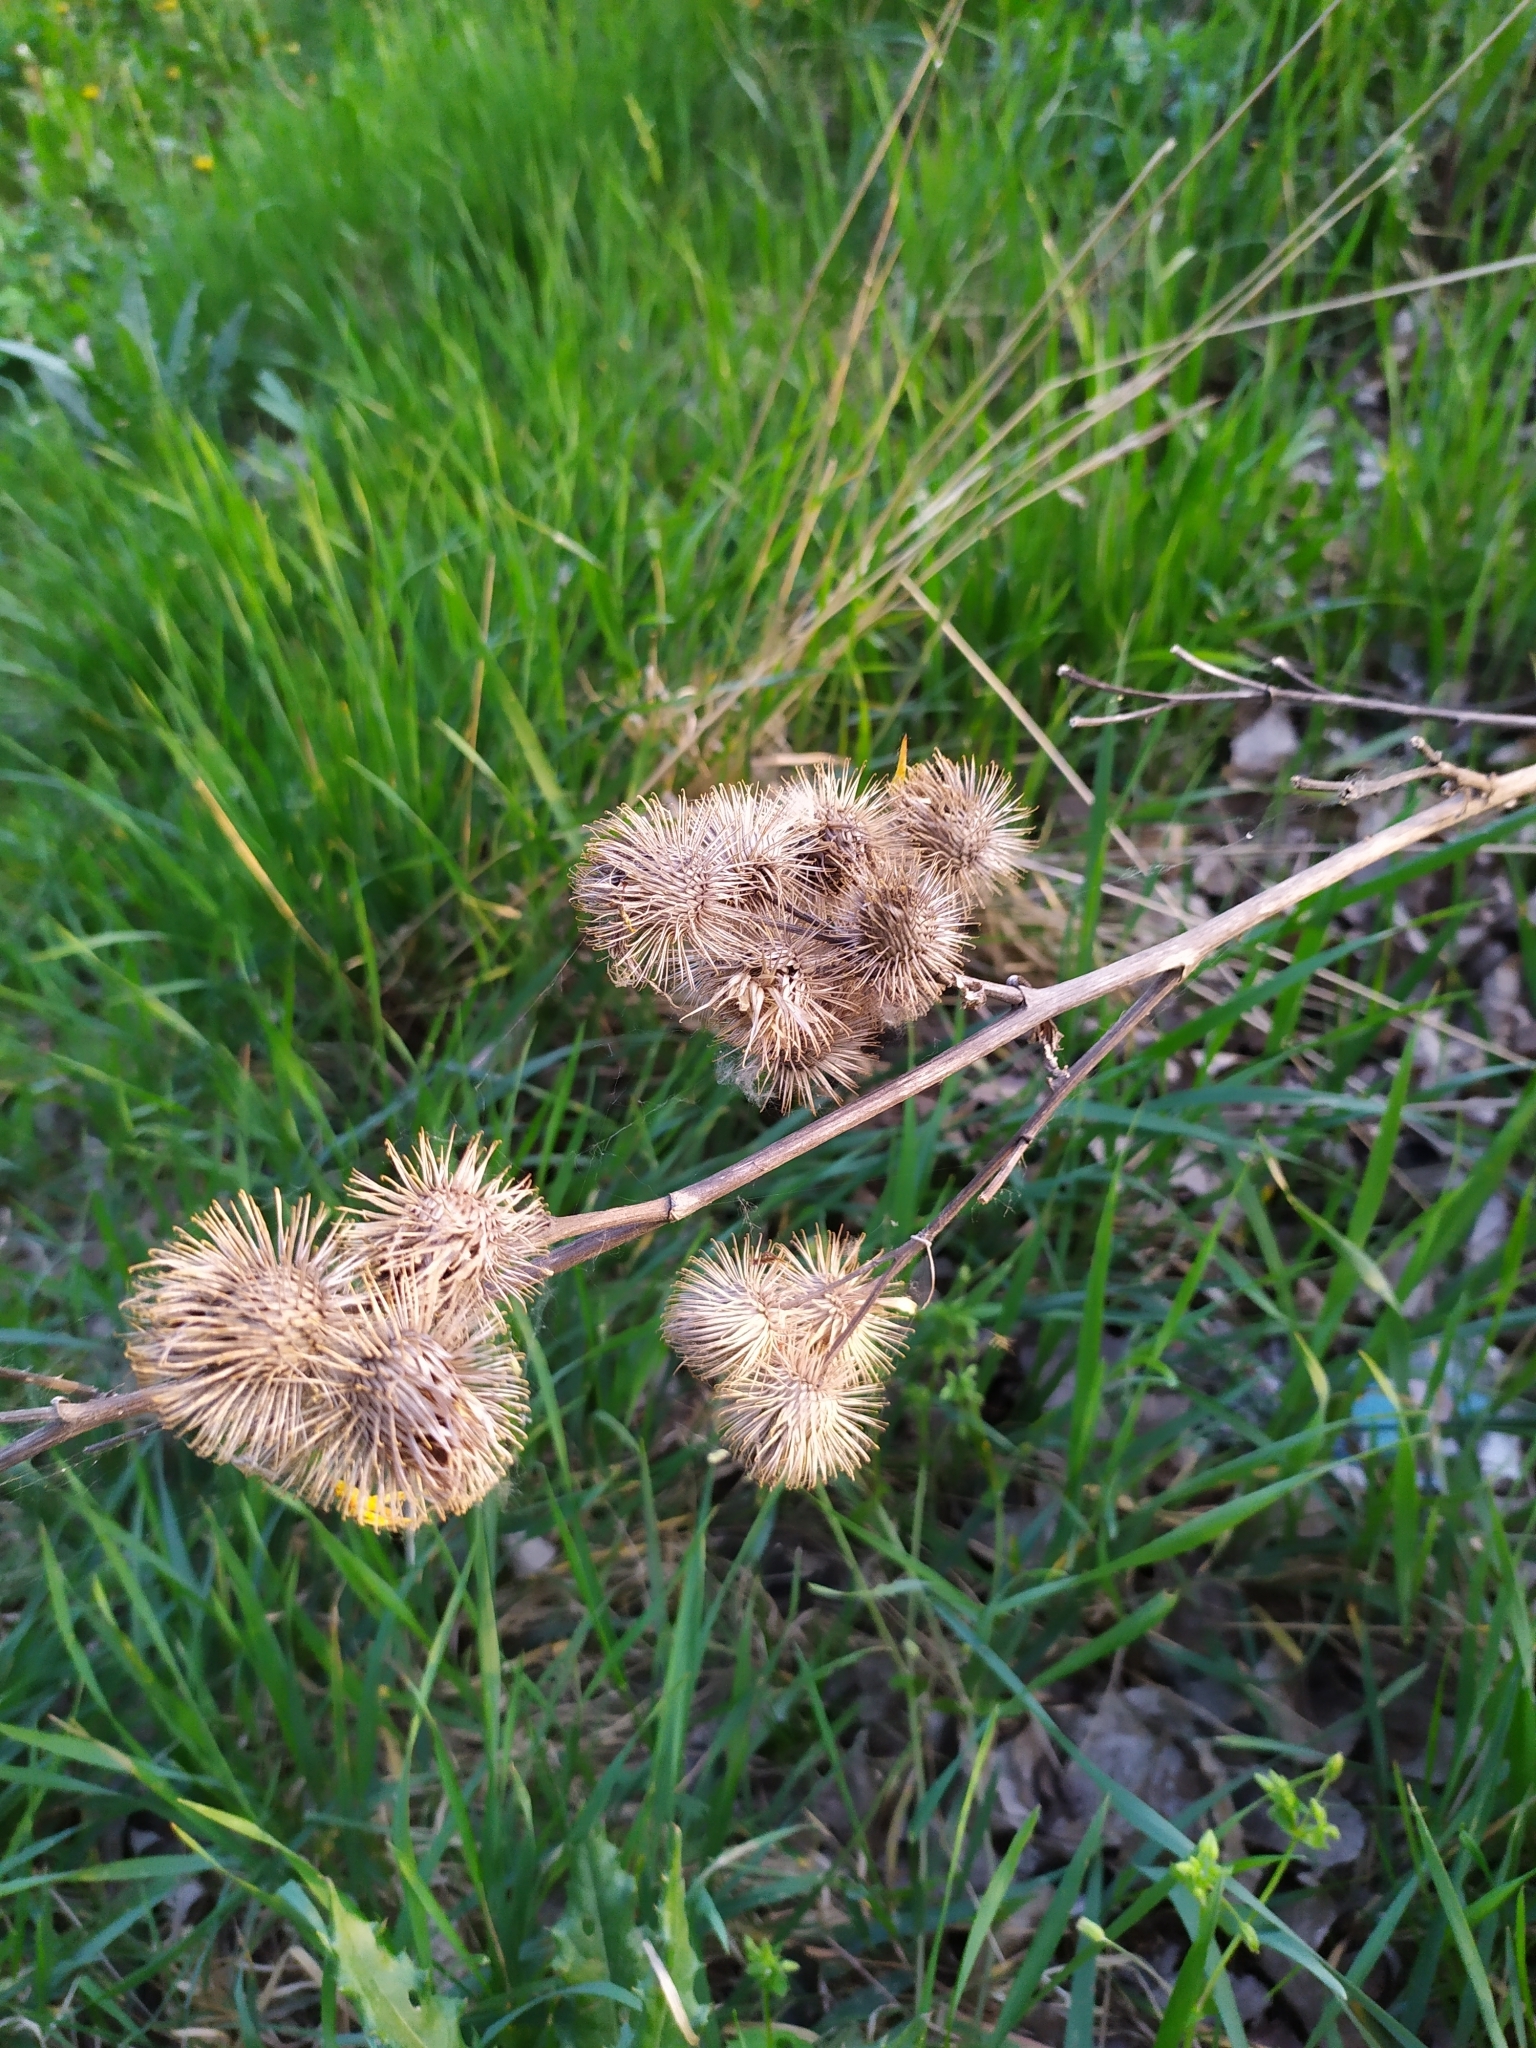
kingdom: Plantae
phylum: Tracheophyta
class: Magnoliopsida
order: Asterales
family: Asteraceae
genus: Arctium
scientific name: Arctium lappa
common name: Greater burdock
